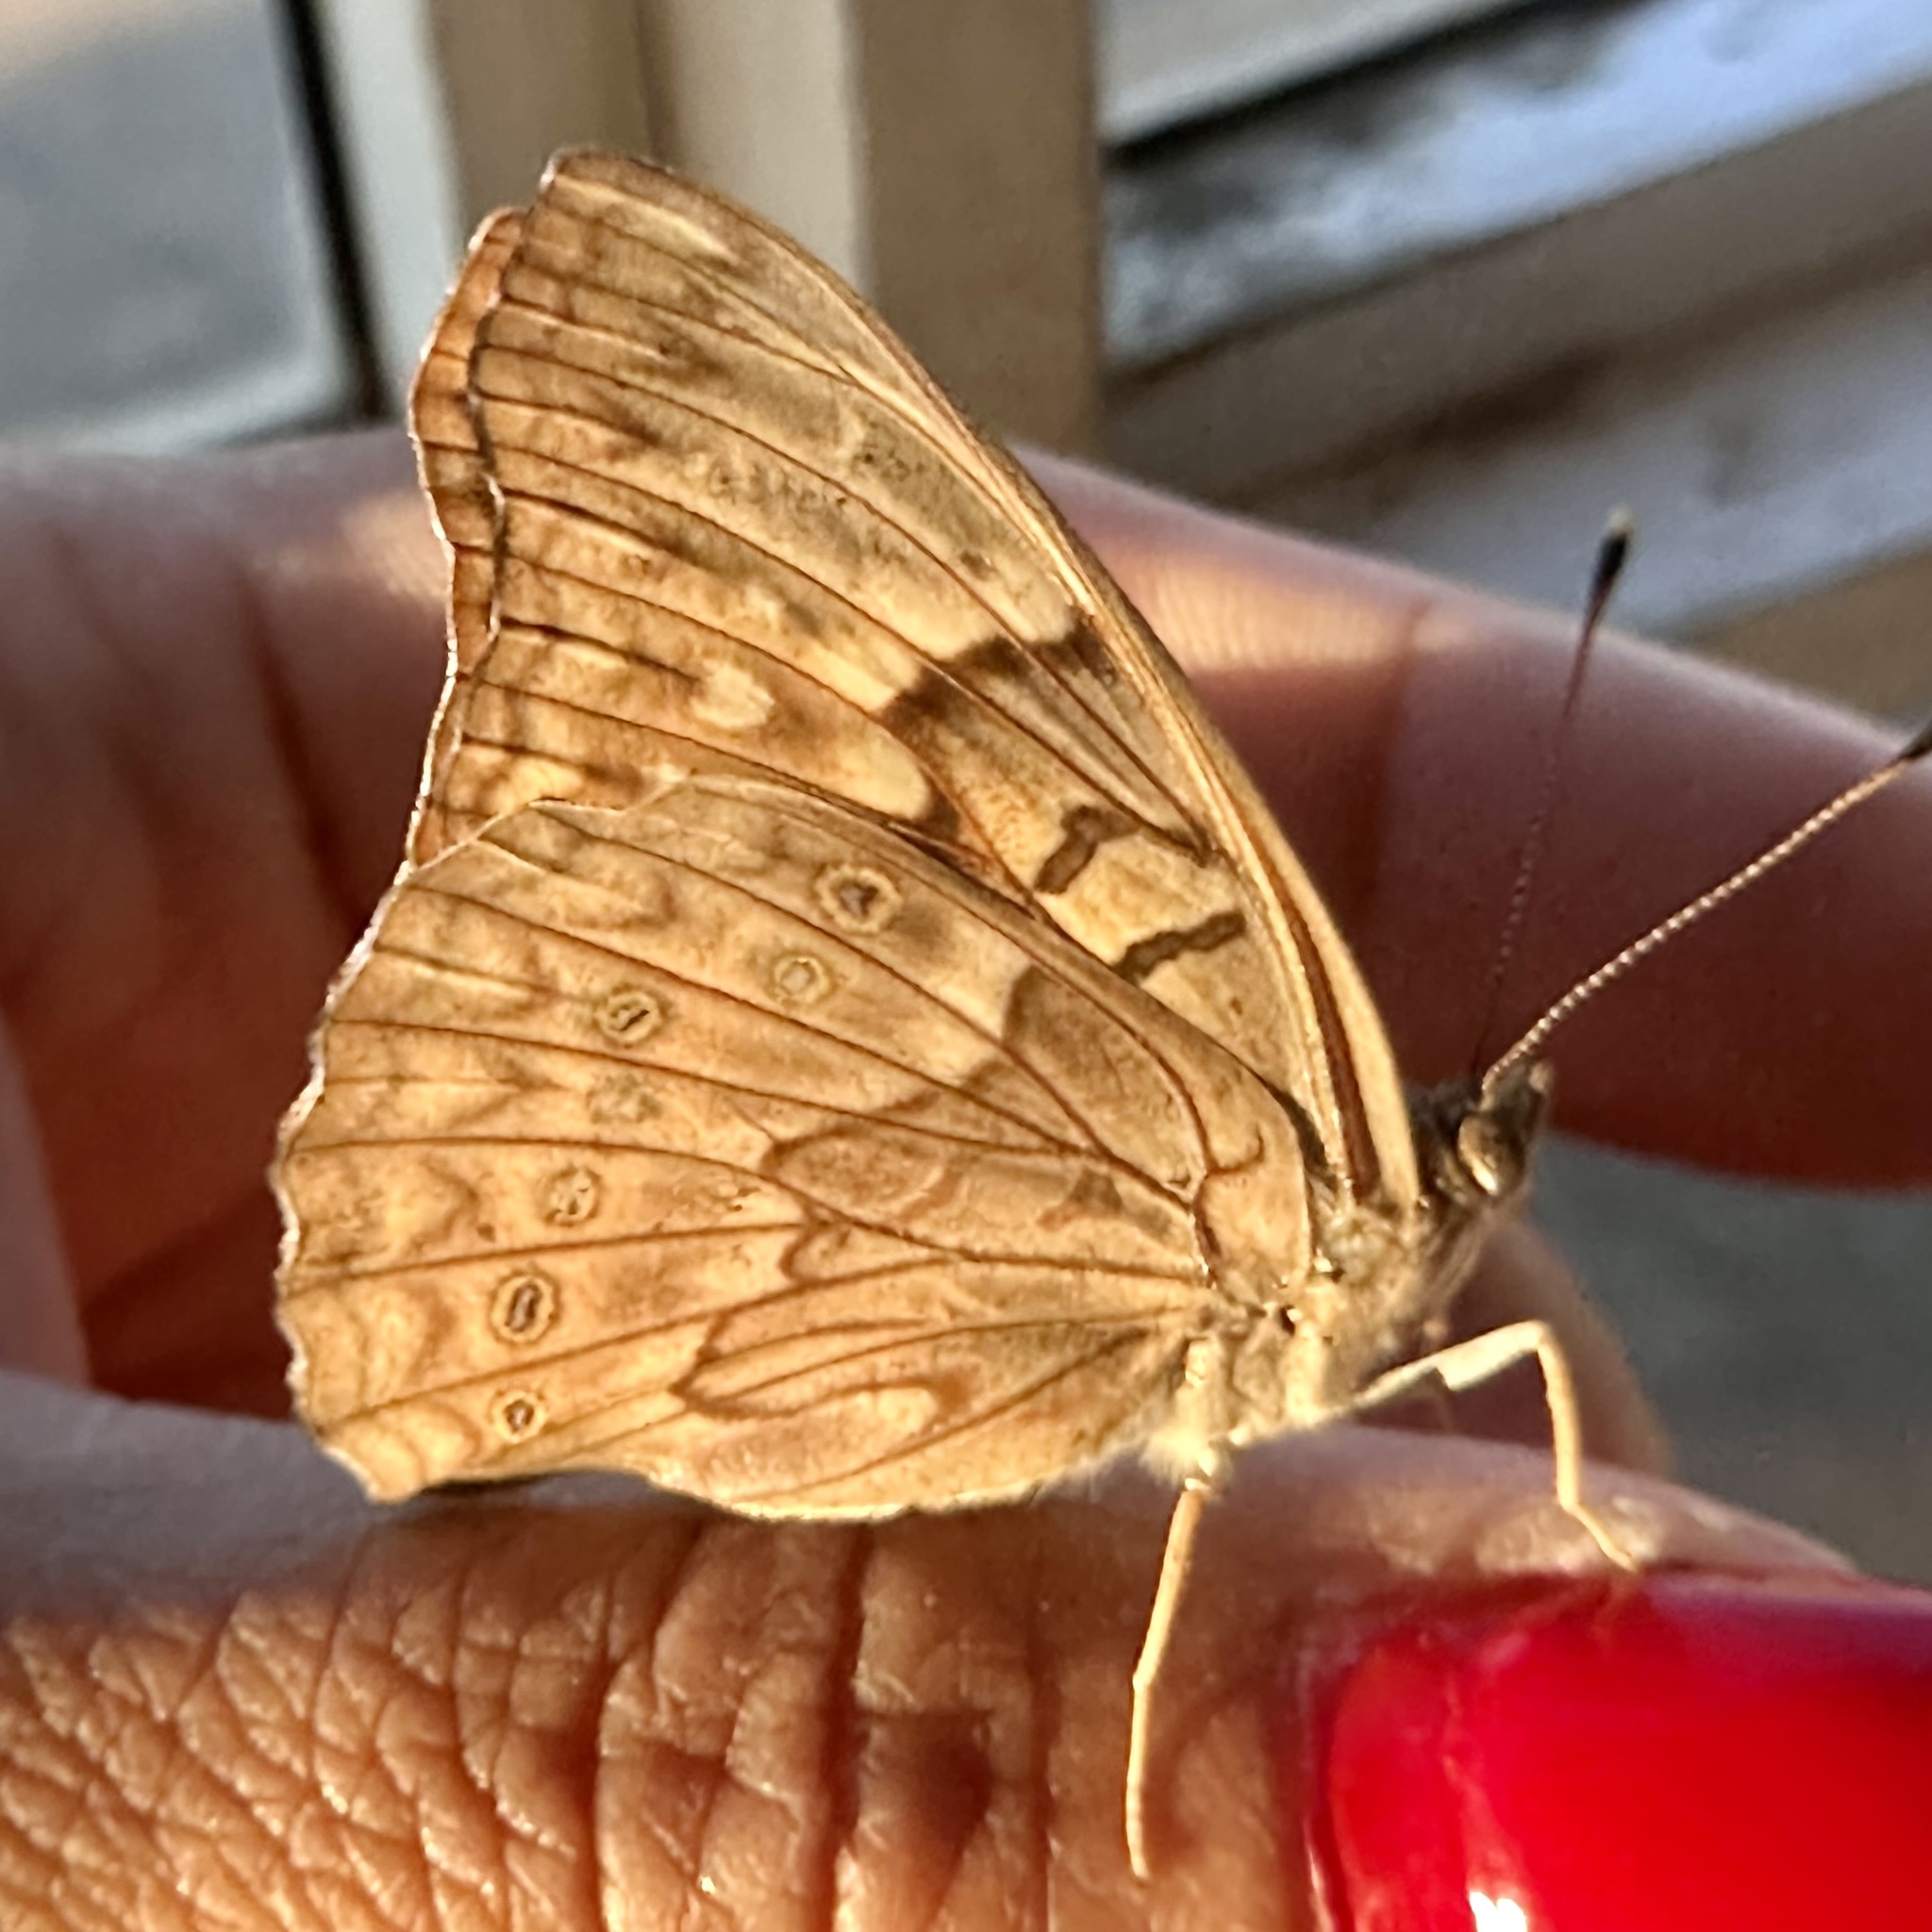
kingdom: Animalia
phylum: Arthropoda
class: Insecta
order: Lepidoptera
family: Nymphalidae
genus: Asterocampa
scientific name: Asterocampa clyton
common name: Tawny emperor
